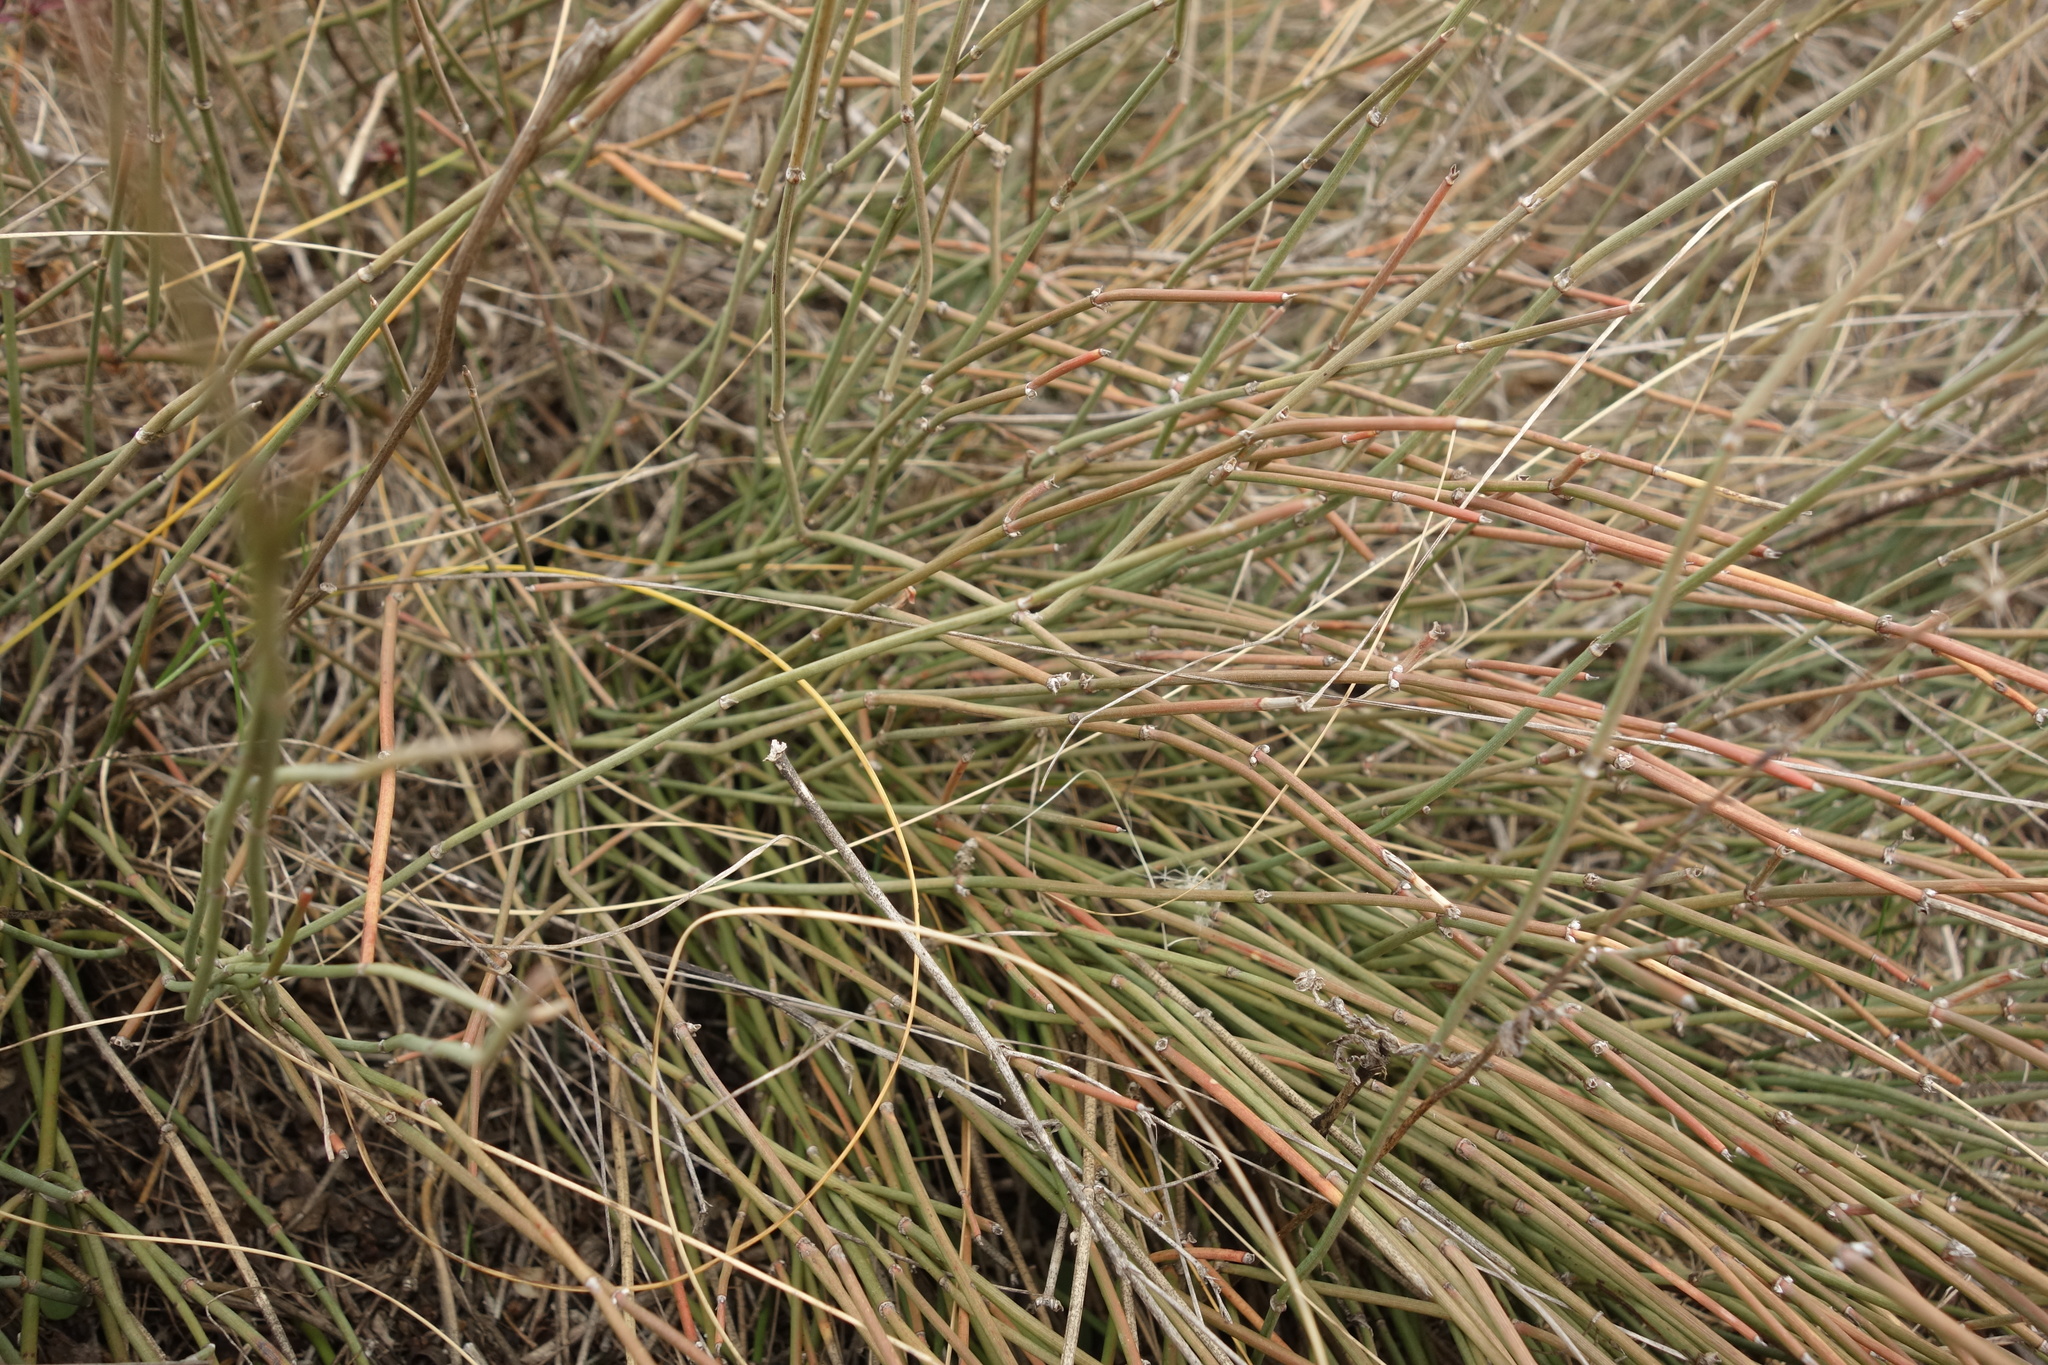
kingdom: Plantae
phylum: Tracheophyta
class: Gnetopsida
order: Ephedrales
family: Ephedraceae
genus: Ephedra
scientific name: Ephedra distachya
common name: Sea grape
